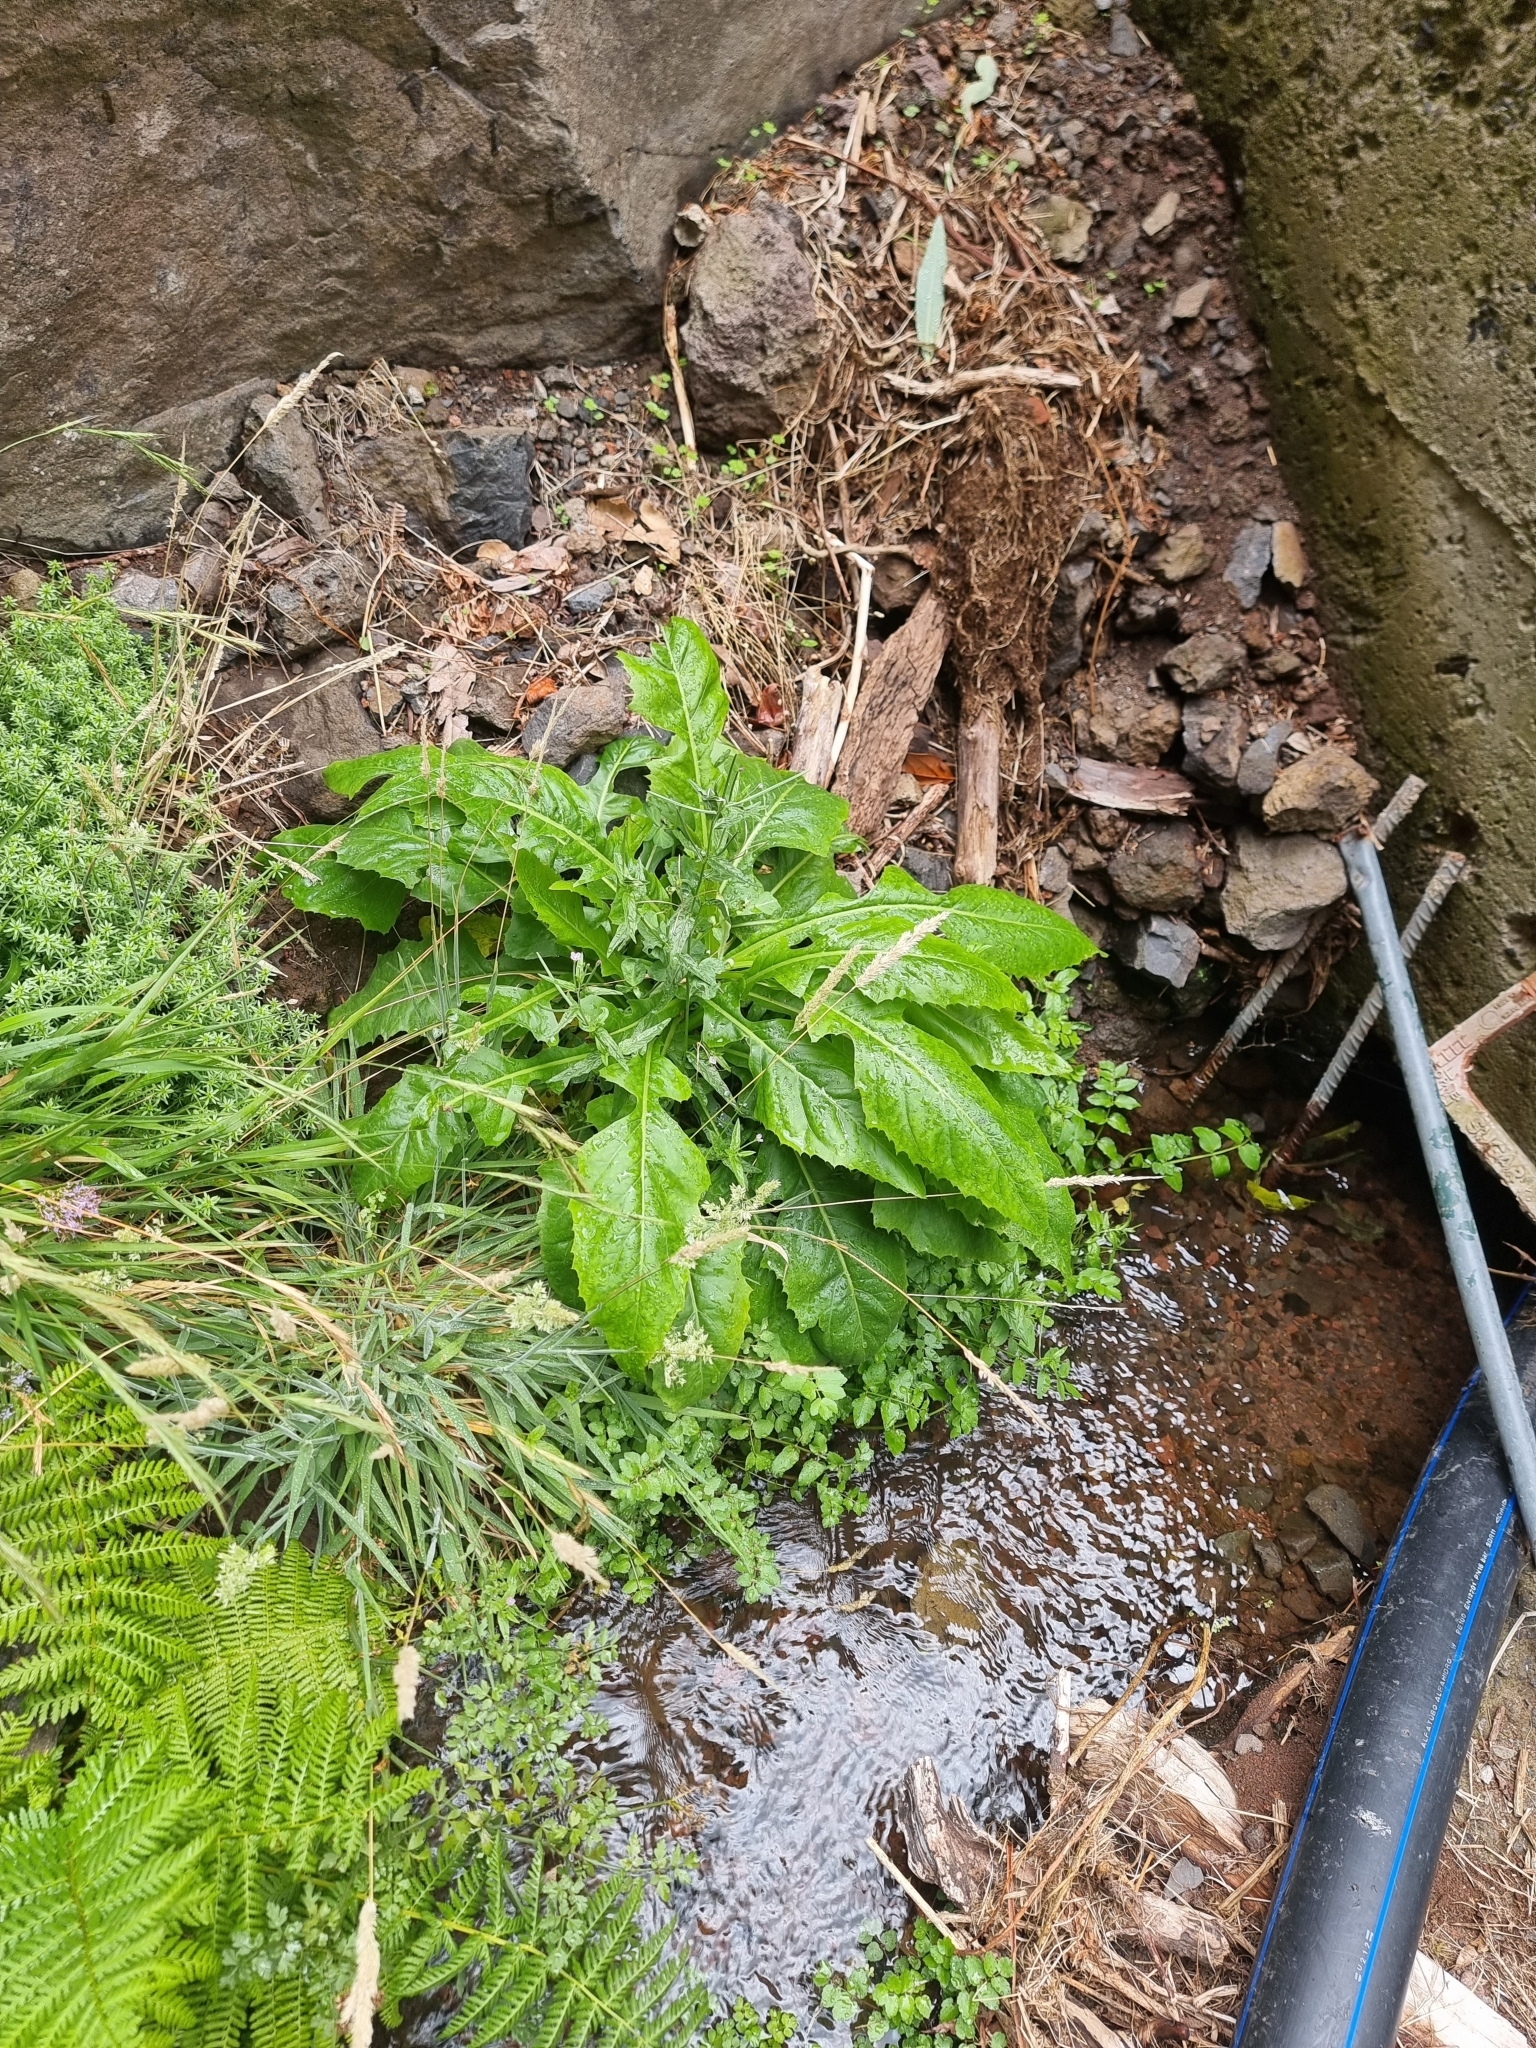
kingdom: Plantae
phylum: Tracheophyta
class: Magnoliopsida
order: Asterales
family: Asteraceae
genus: Sonchus
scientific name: Sonchus fruticosus
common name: Shrubby sow-thistle
